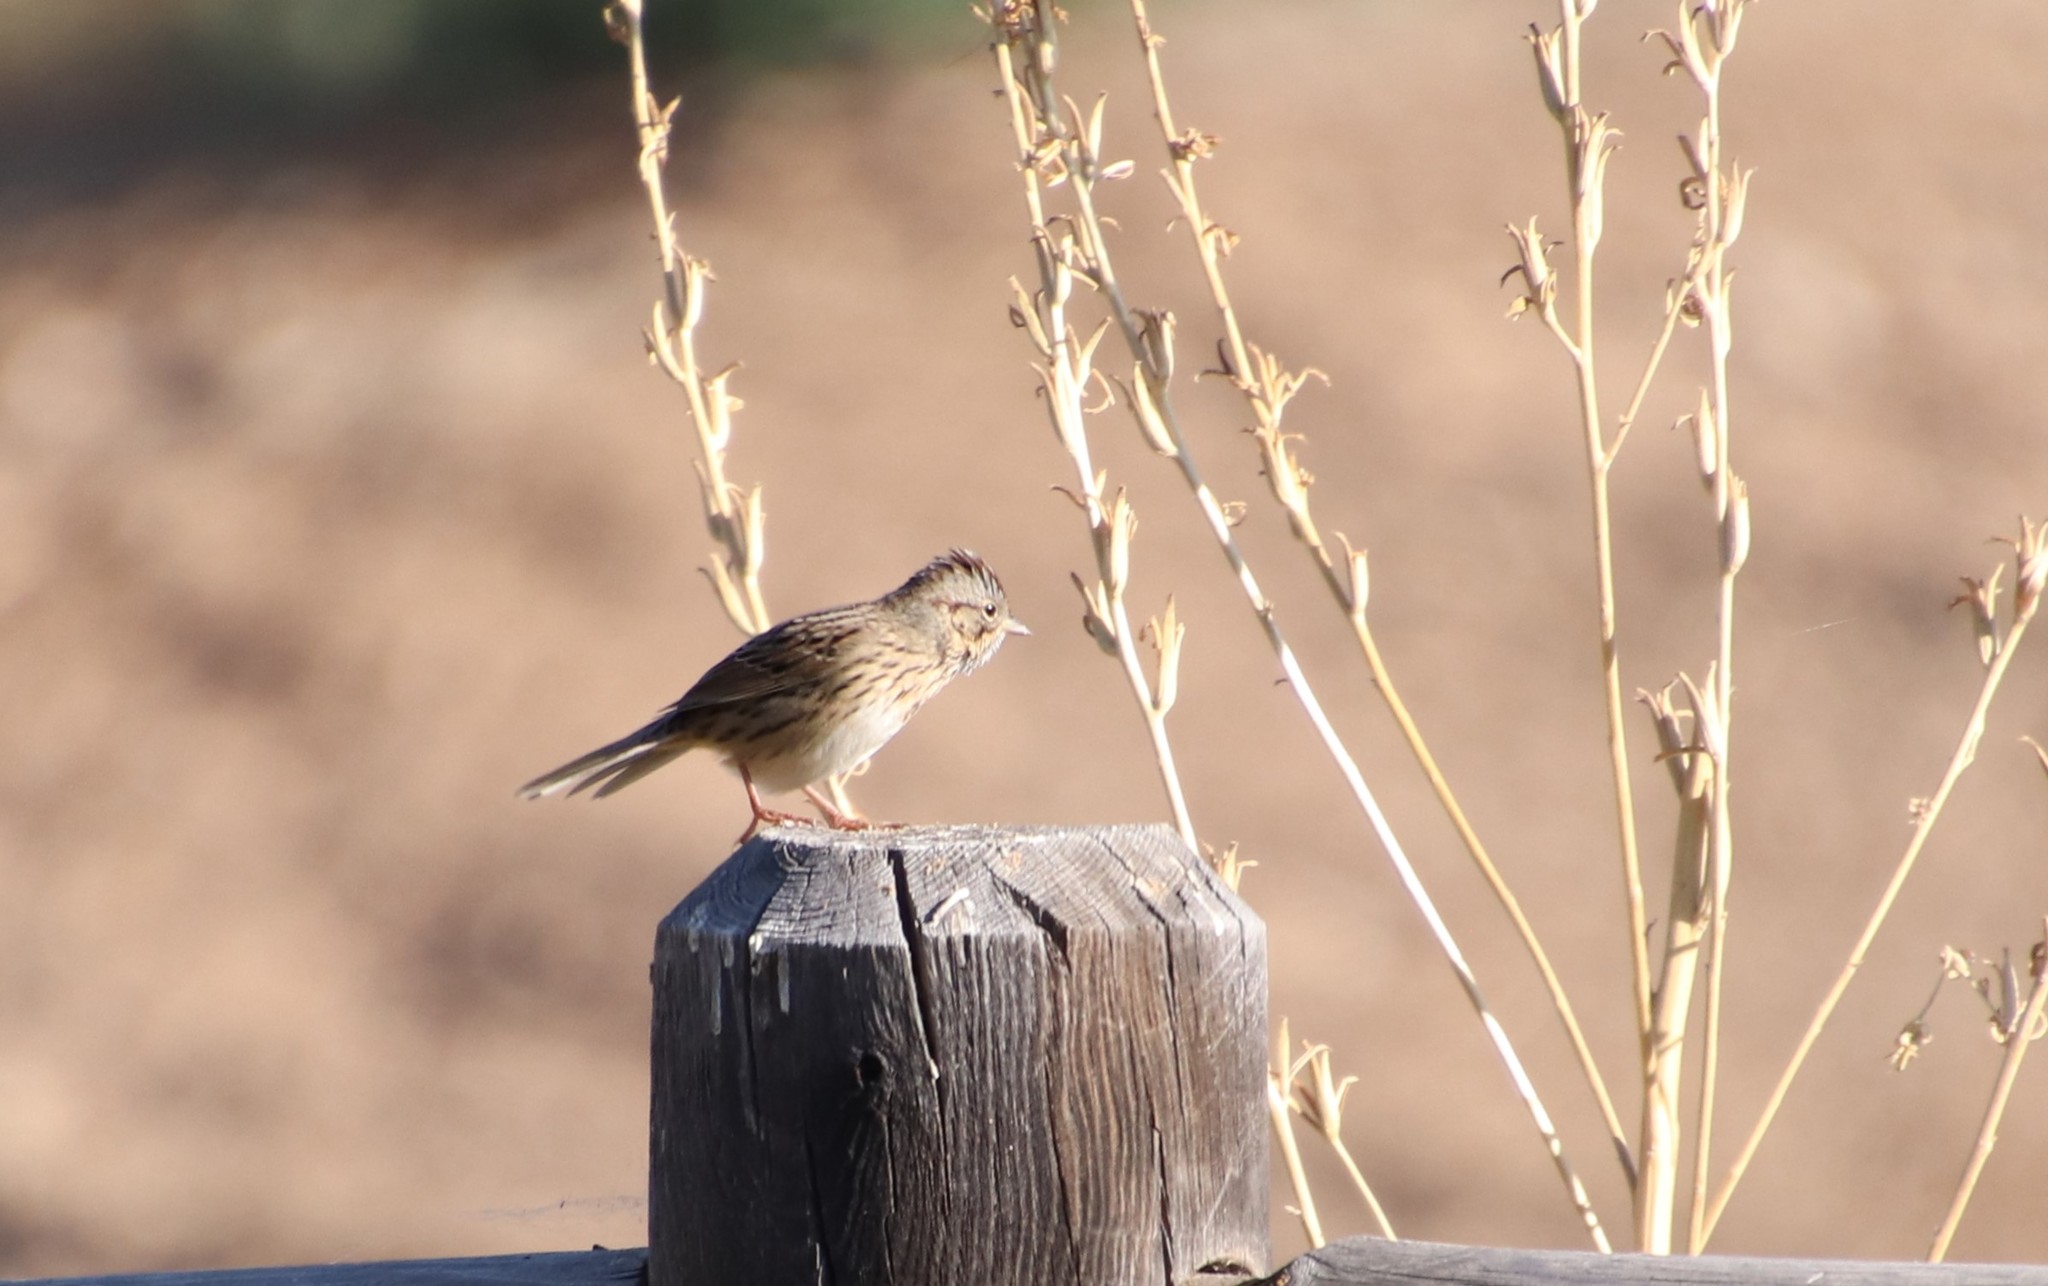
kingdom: Animalia
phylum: Chordata
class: Aves
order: Passeriformes
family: Passerellidae
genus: Melospiza
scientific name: Melospiza lincolnii
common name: Lincoln's sparrow
